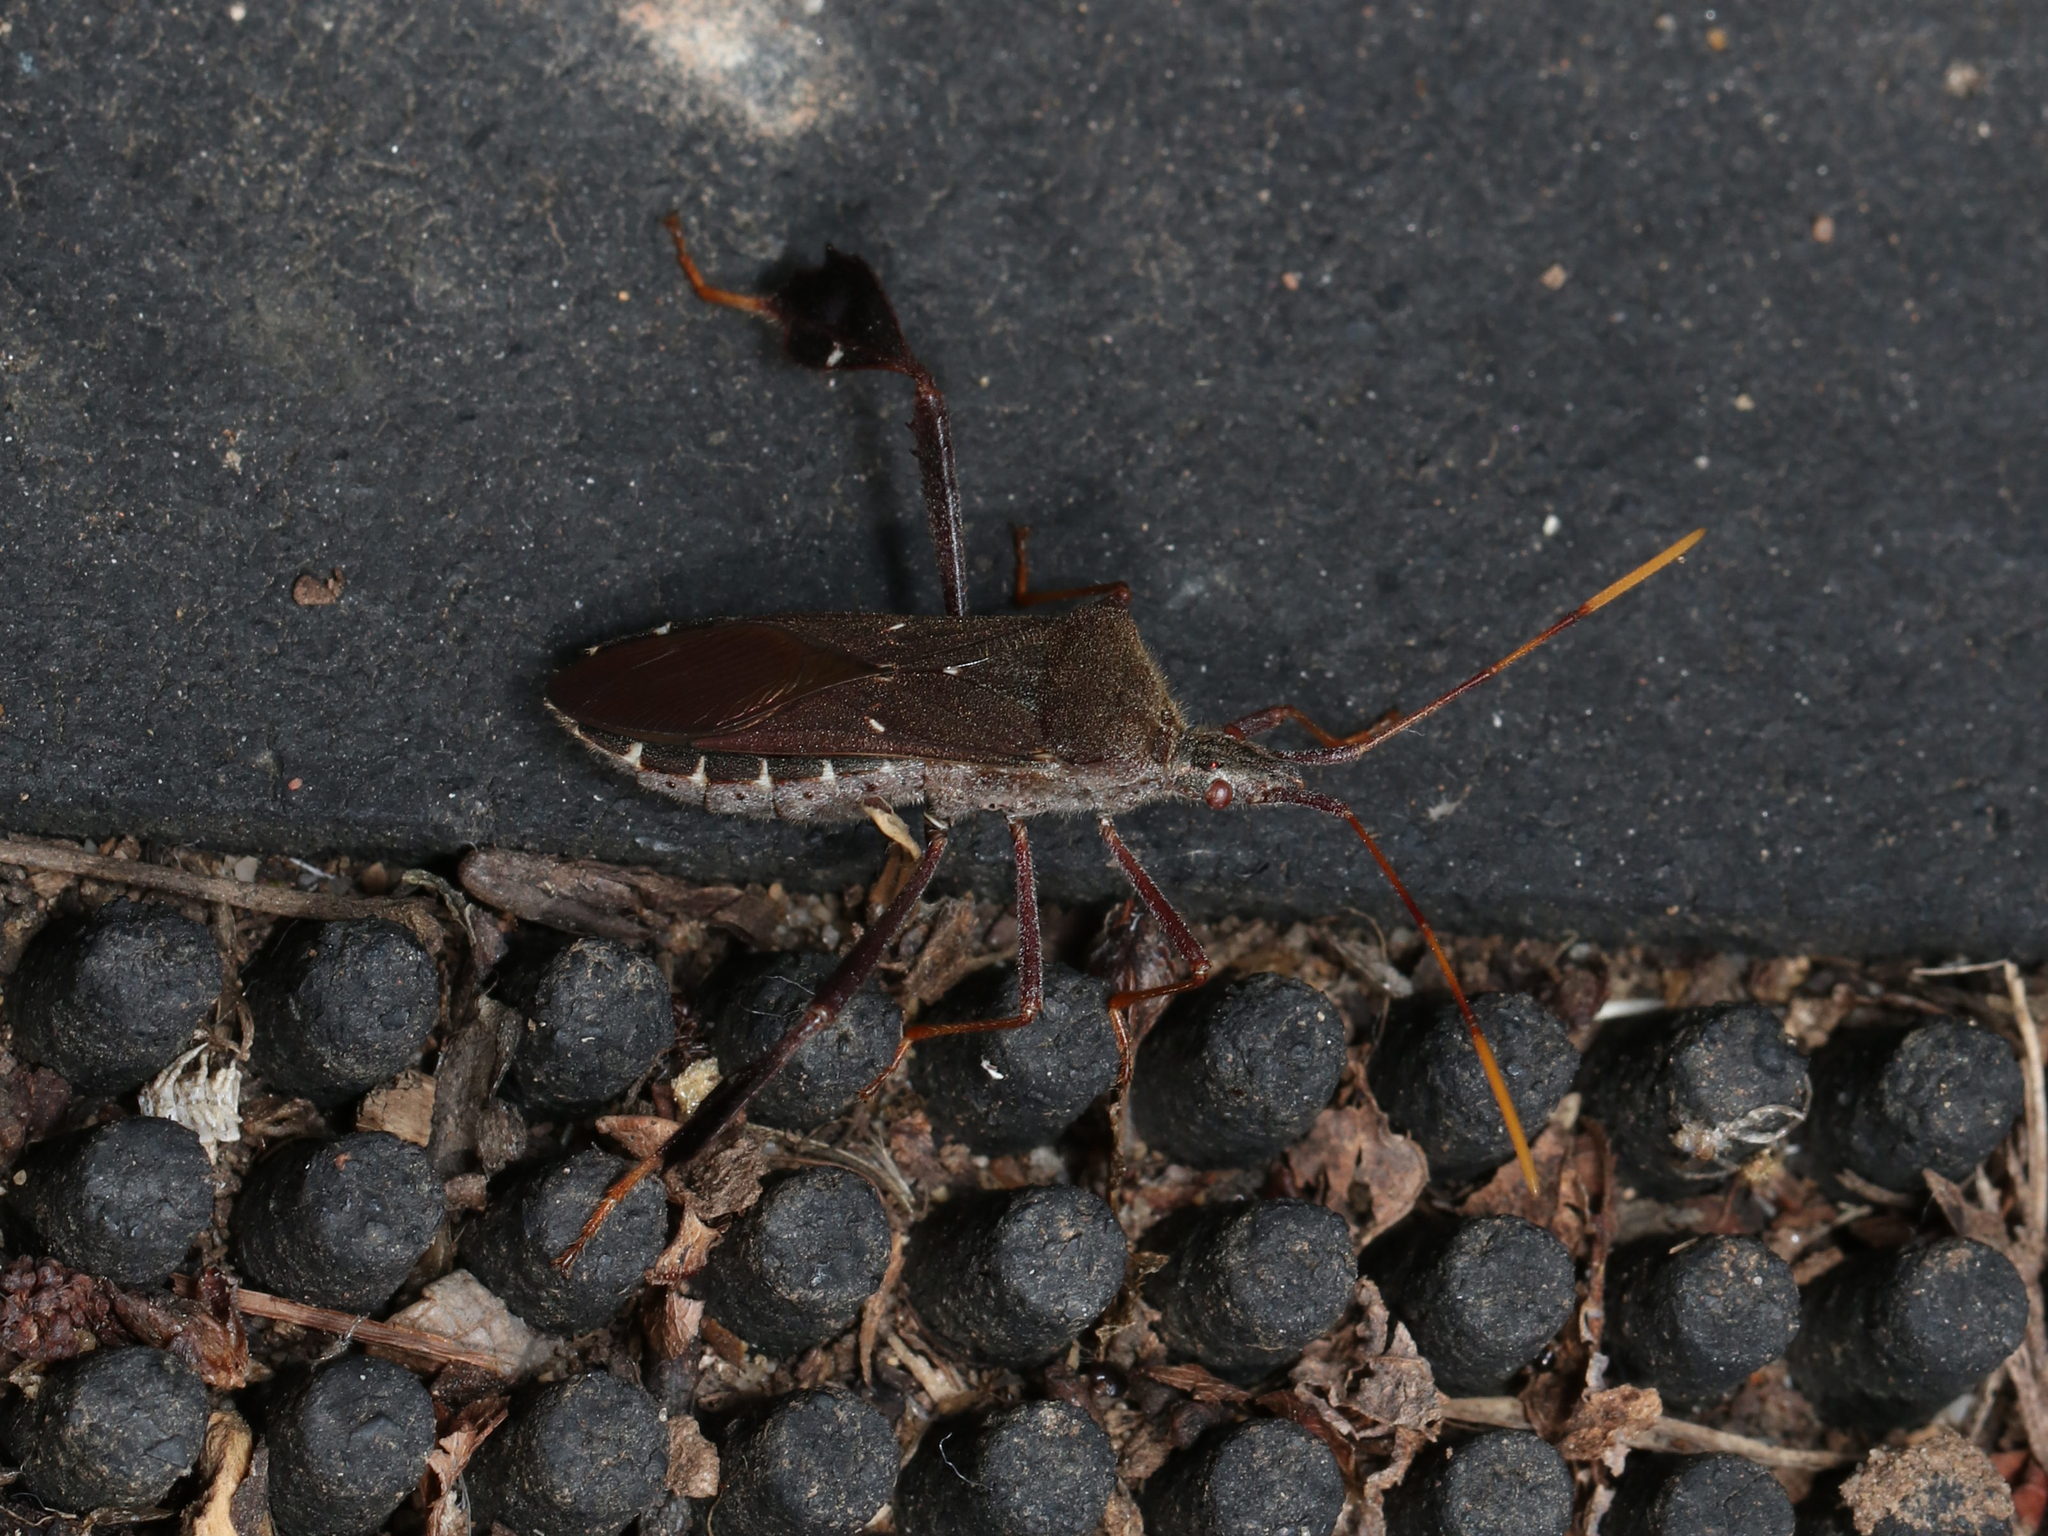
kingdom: Animalia
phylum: Arthropoda
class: Insecta
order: Hemiptera
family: Coreidae
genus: Leptoglossus
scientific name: Leptoglossus oppositus
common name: Northern leaf-footed bug
